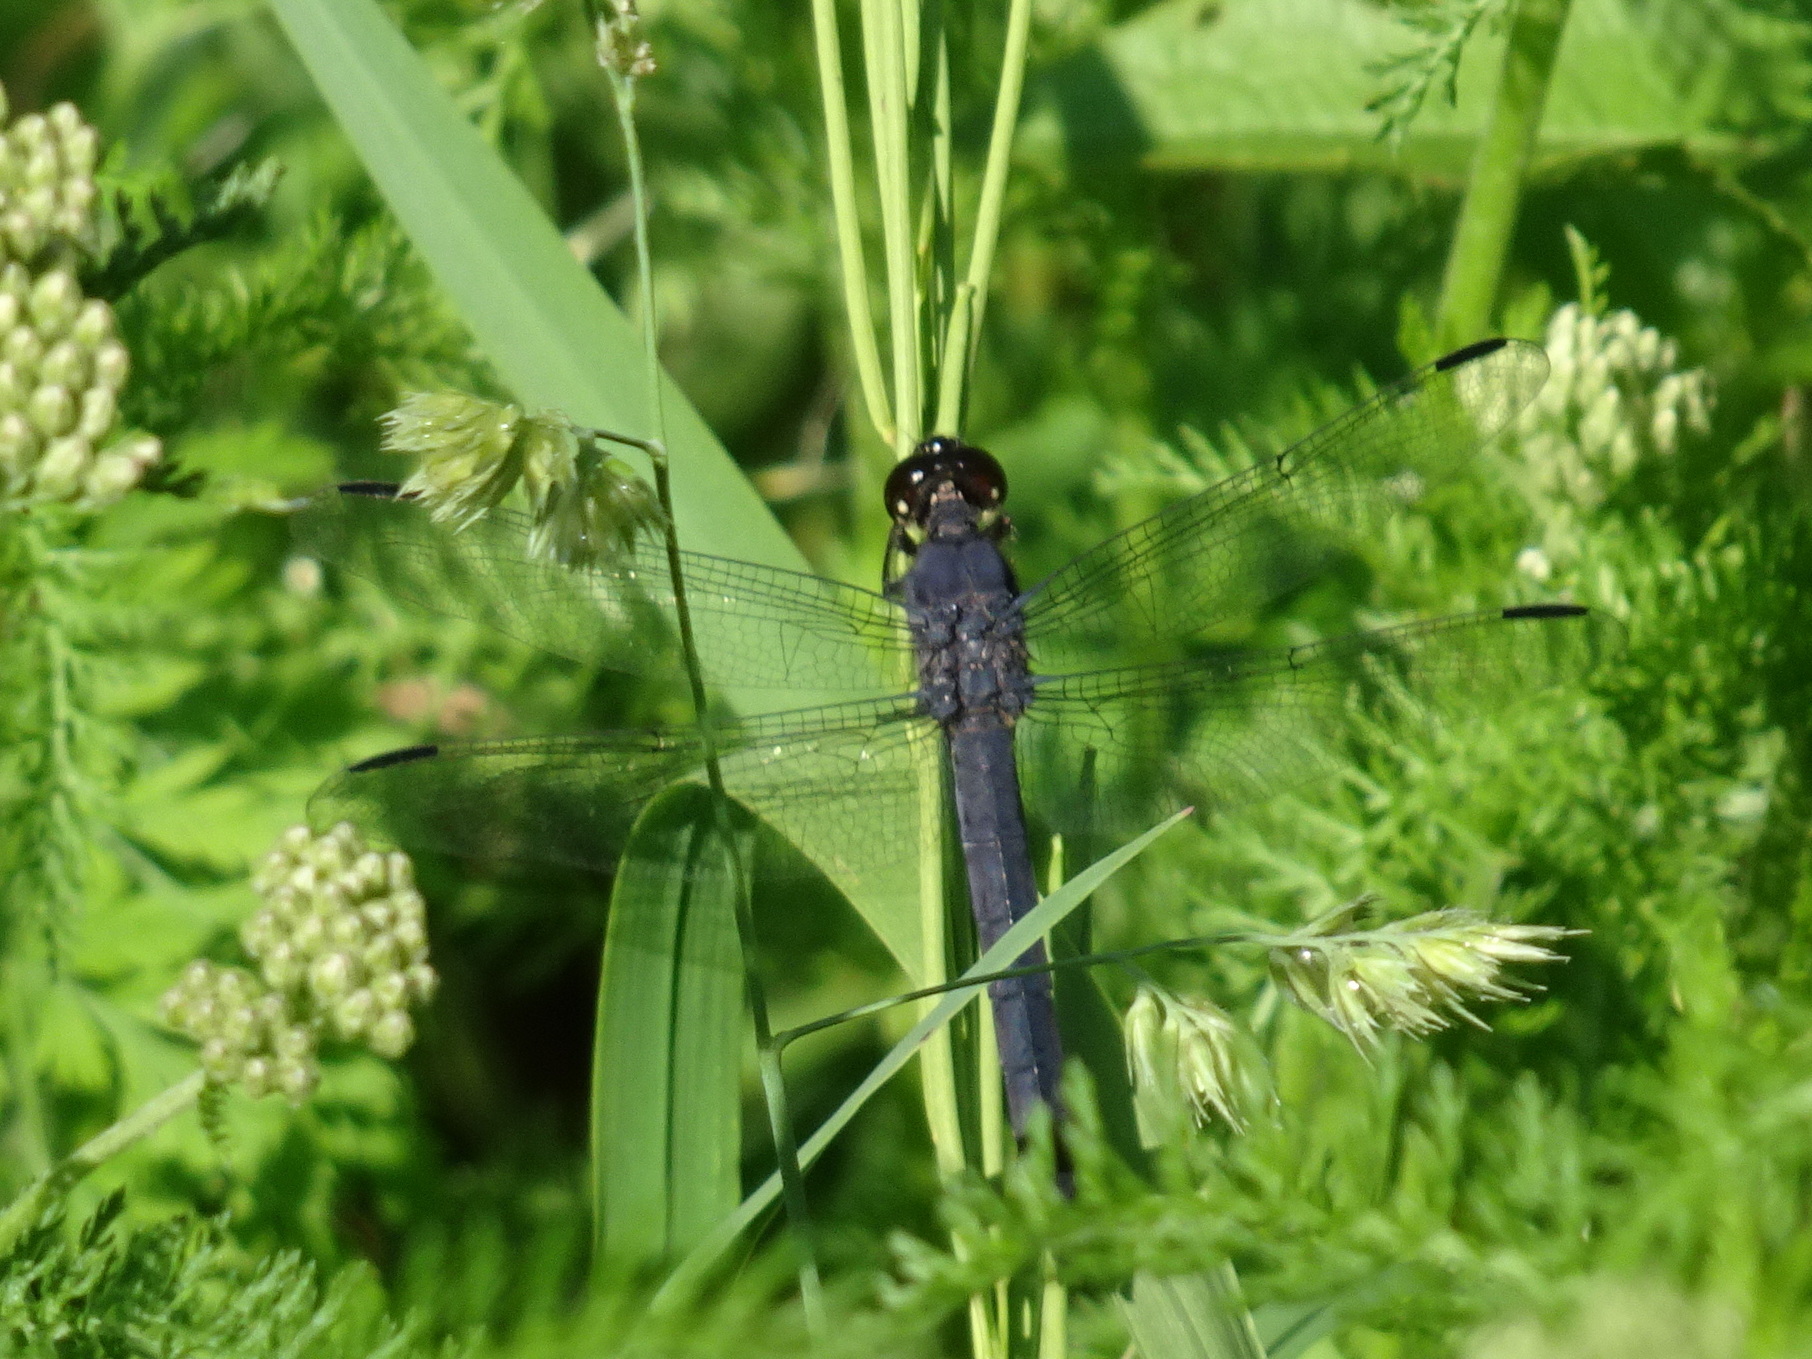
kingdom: Animalia
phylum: Arthropoda
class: Insecta
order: Odonata
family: Libellulidae
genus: Libellula
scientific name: Libellula incesta
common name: Slaty skimmer
